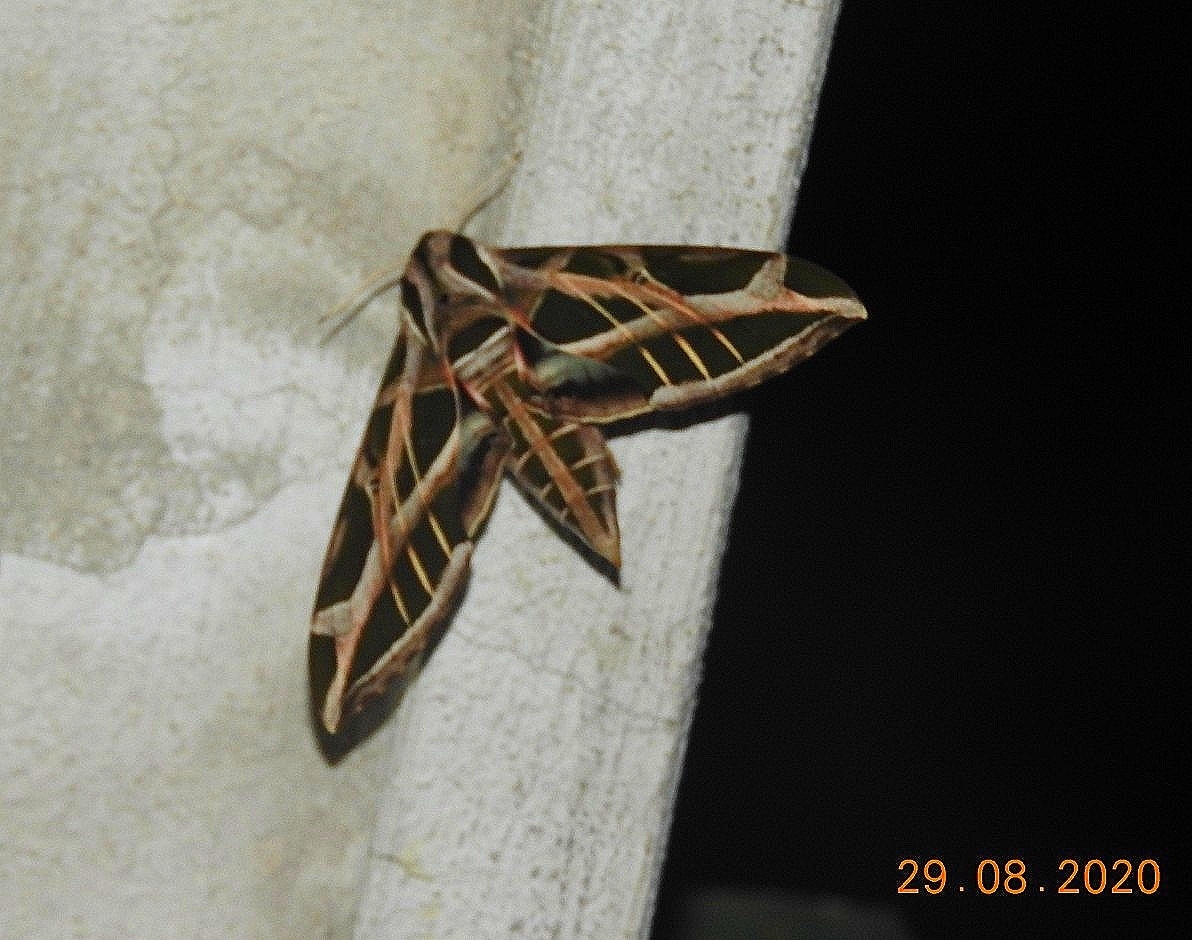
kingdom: Animalia
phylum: Arthropoda
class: Insecta
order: Lepidoptera
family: Sphingidae
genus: Eumorpha
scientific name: Eumorpha vitis
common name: Vine sphinx
